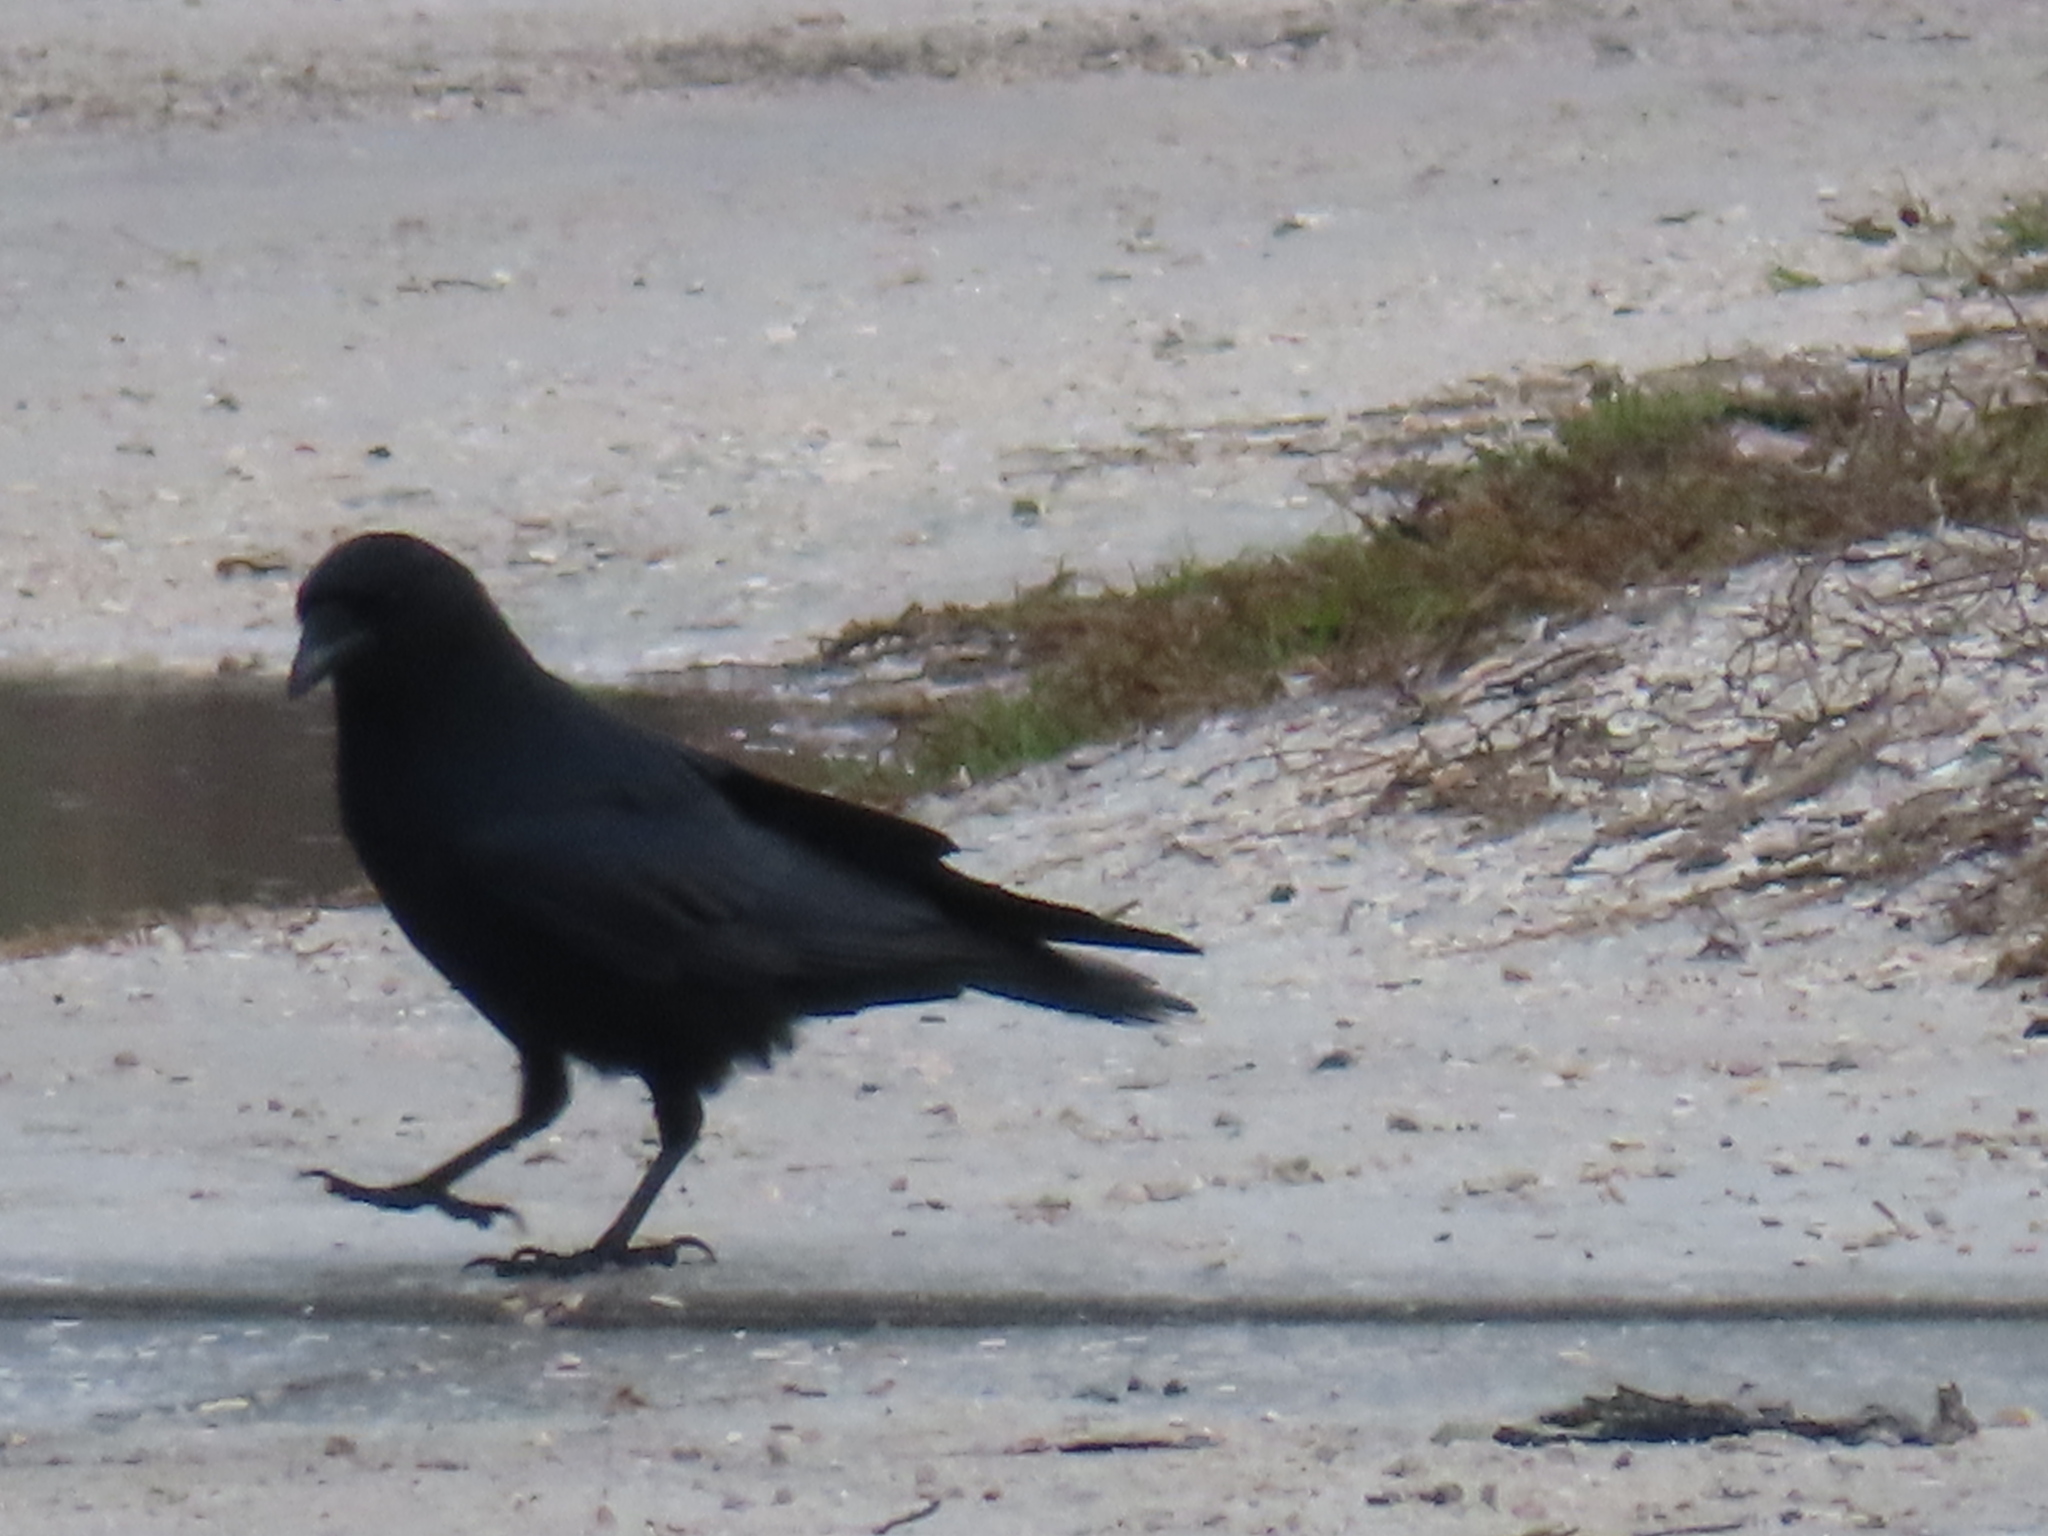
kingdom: Animalia
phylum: Chordata
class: Aves
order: Passeriformes
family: Corvidae
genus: Corvus
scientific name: Corvus ossifragus
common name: Fish crow
